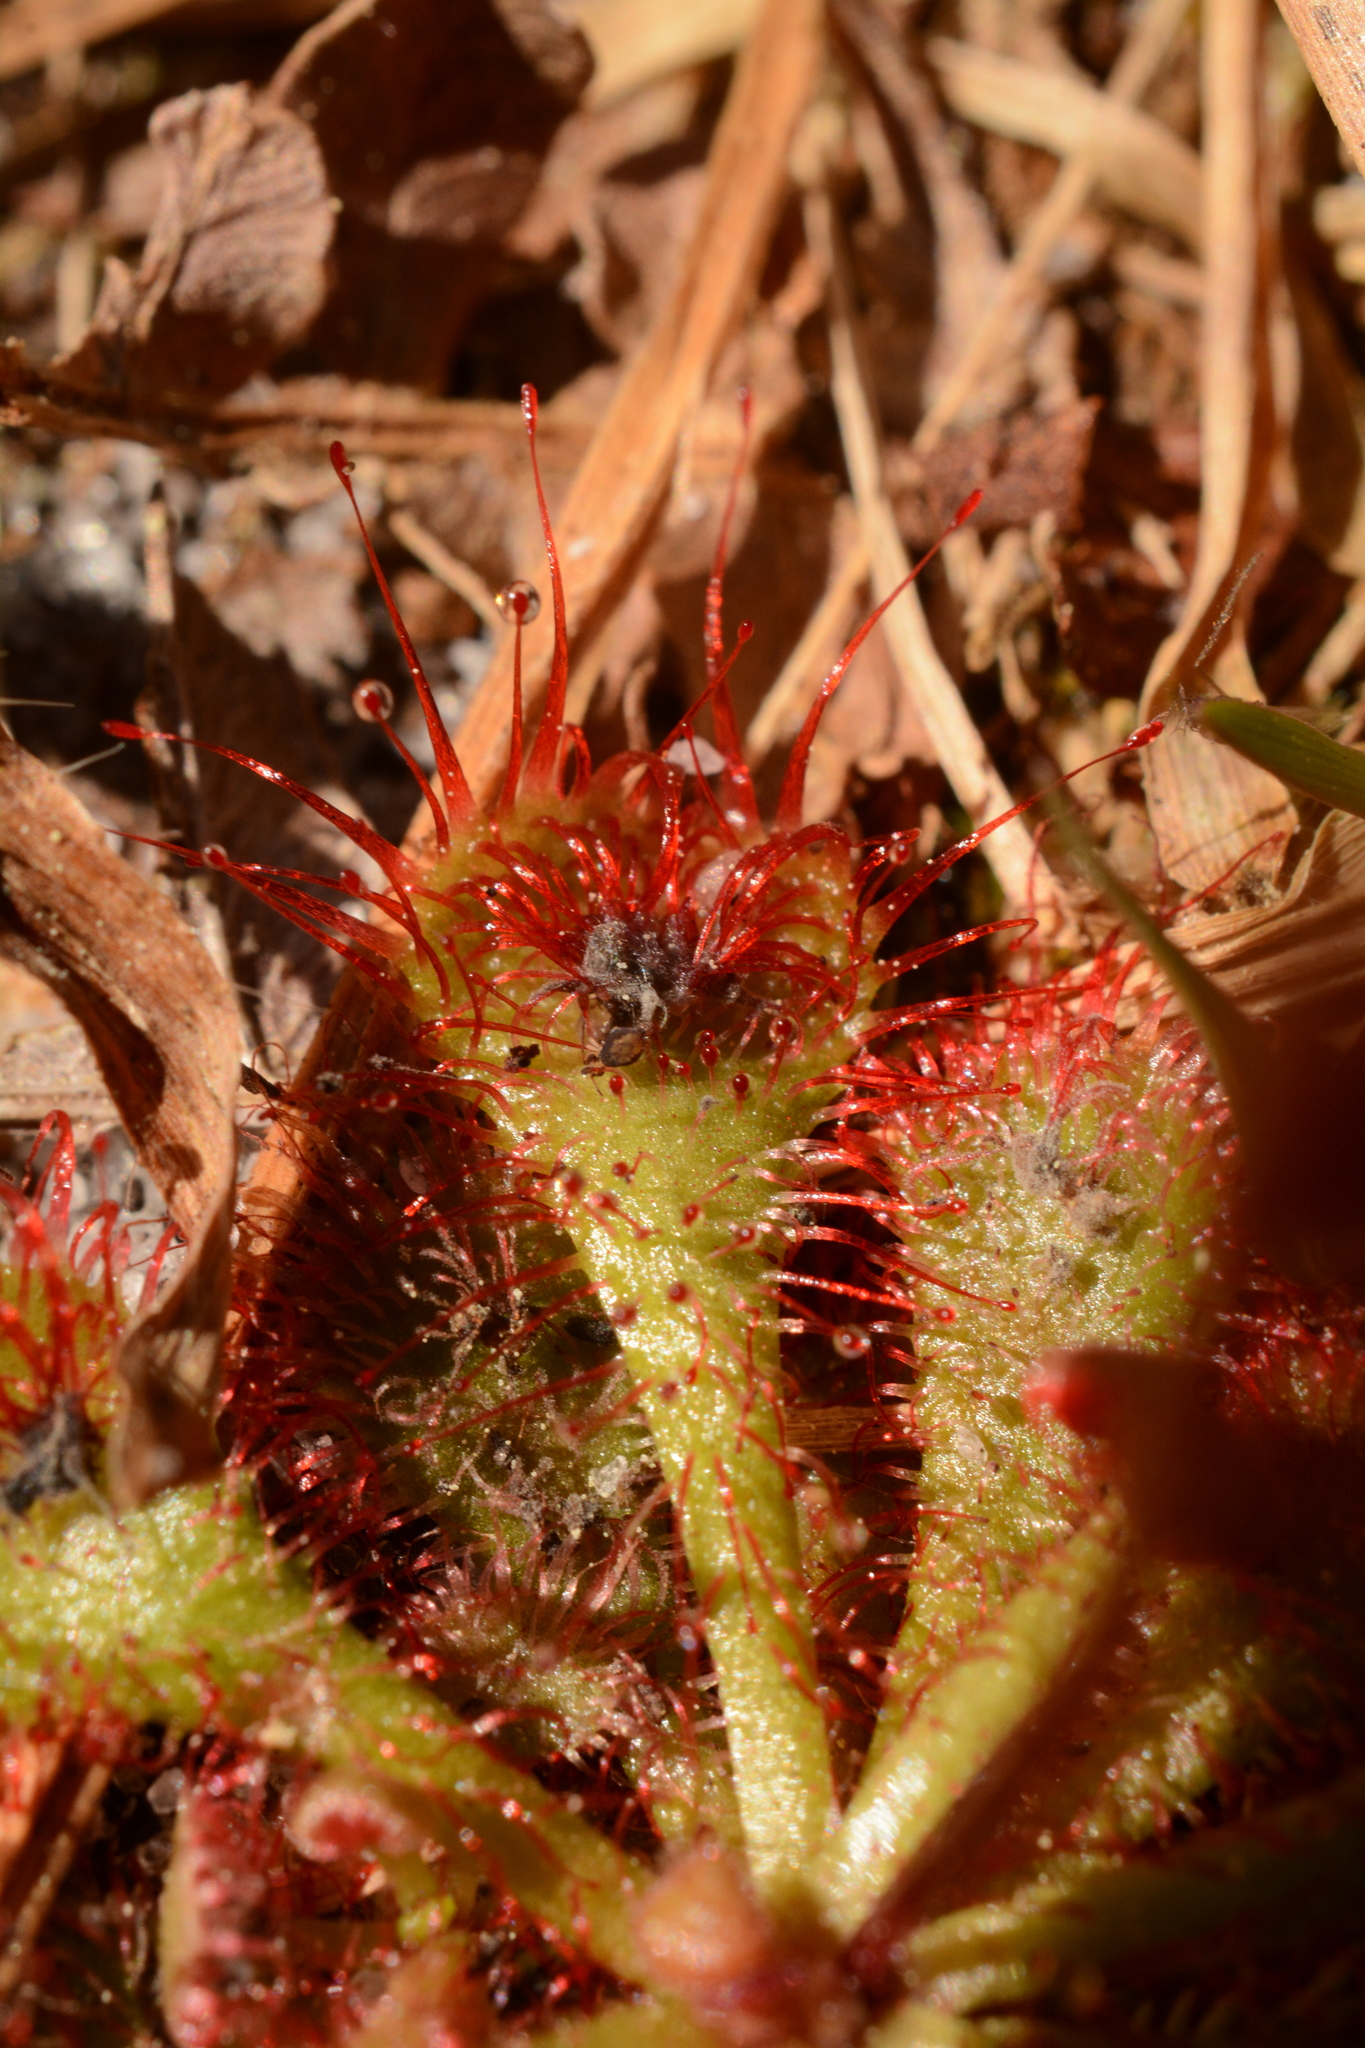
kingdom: Plantae
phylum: Tracheophyta
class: Magnoliopsida
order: Caryophyllales
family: Droseraceae
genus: Drosera
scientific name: Drosera brevifolia
